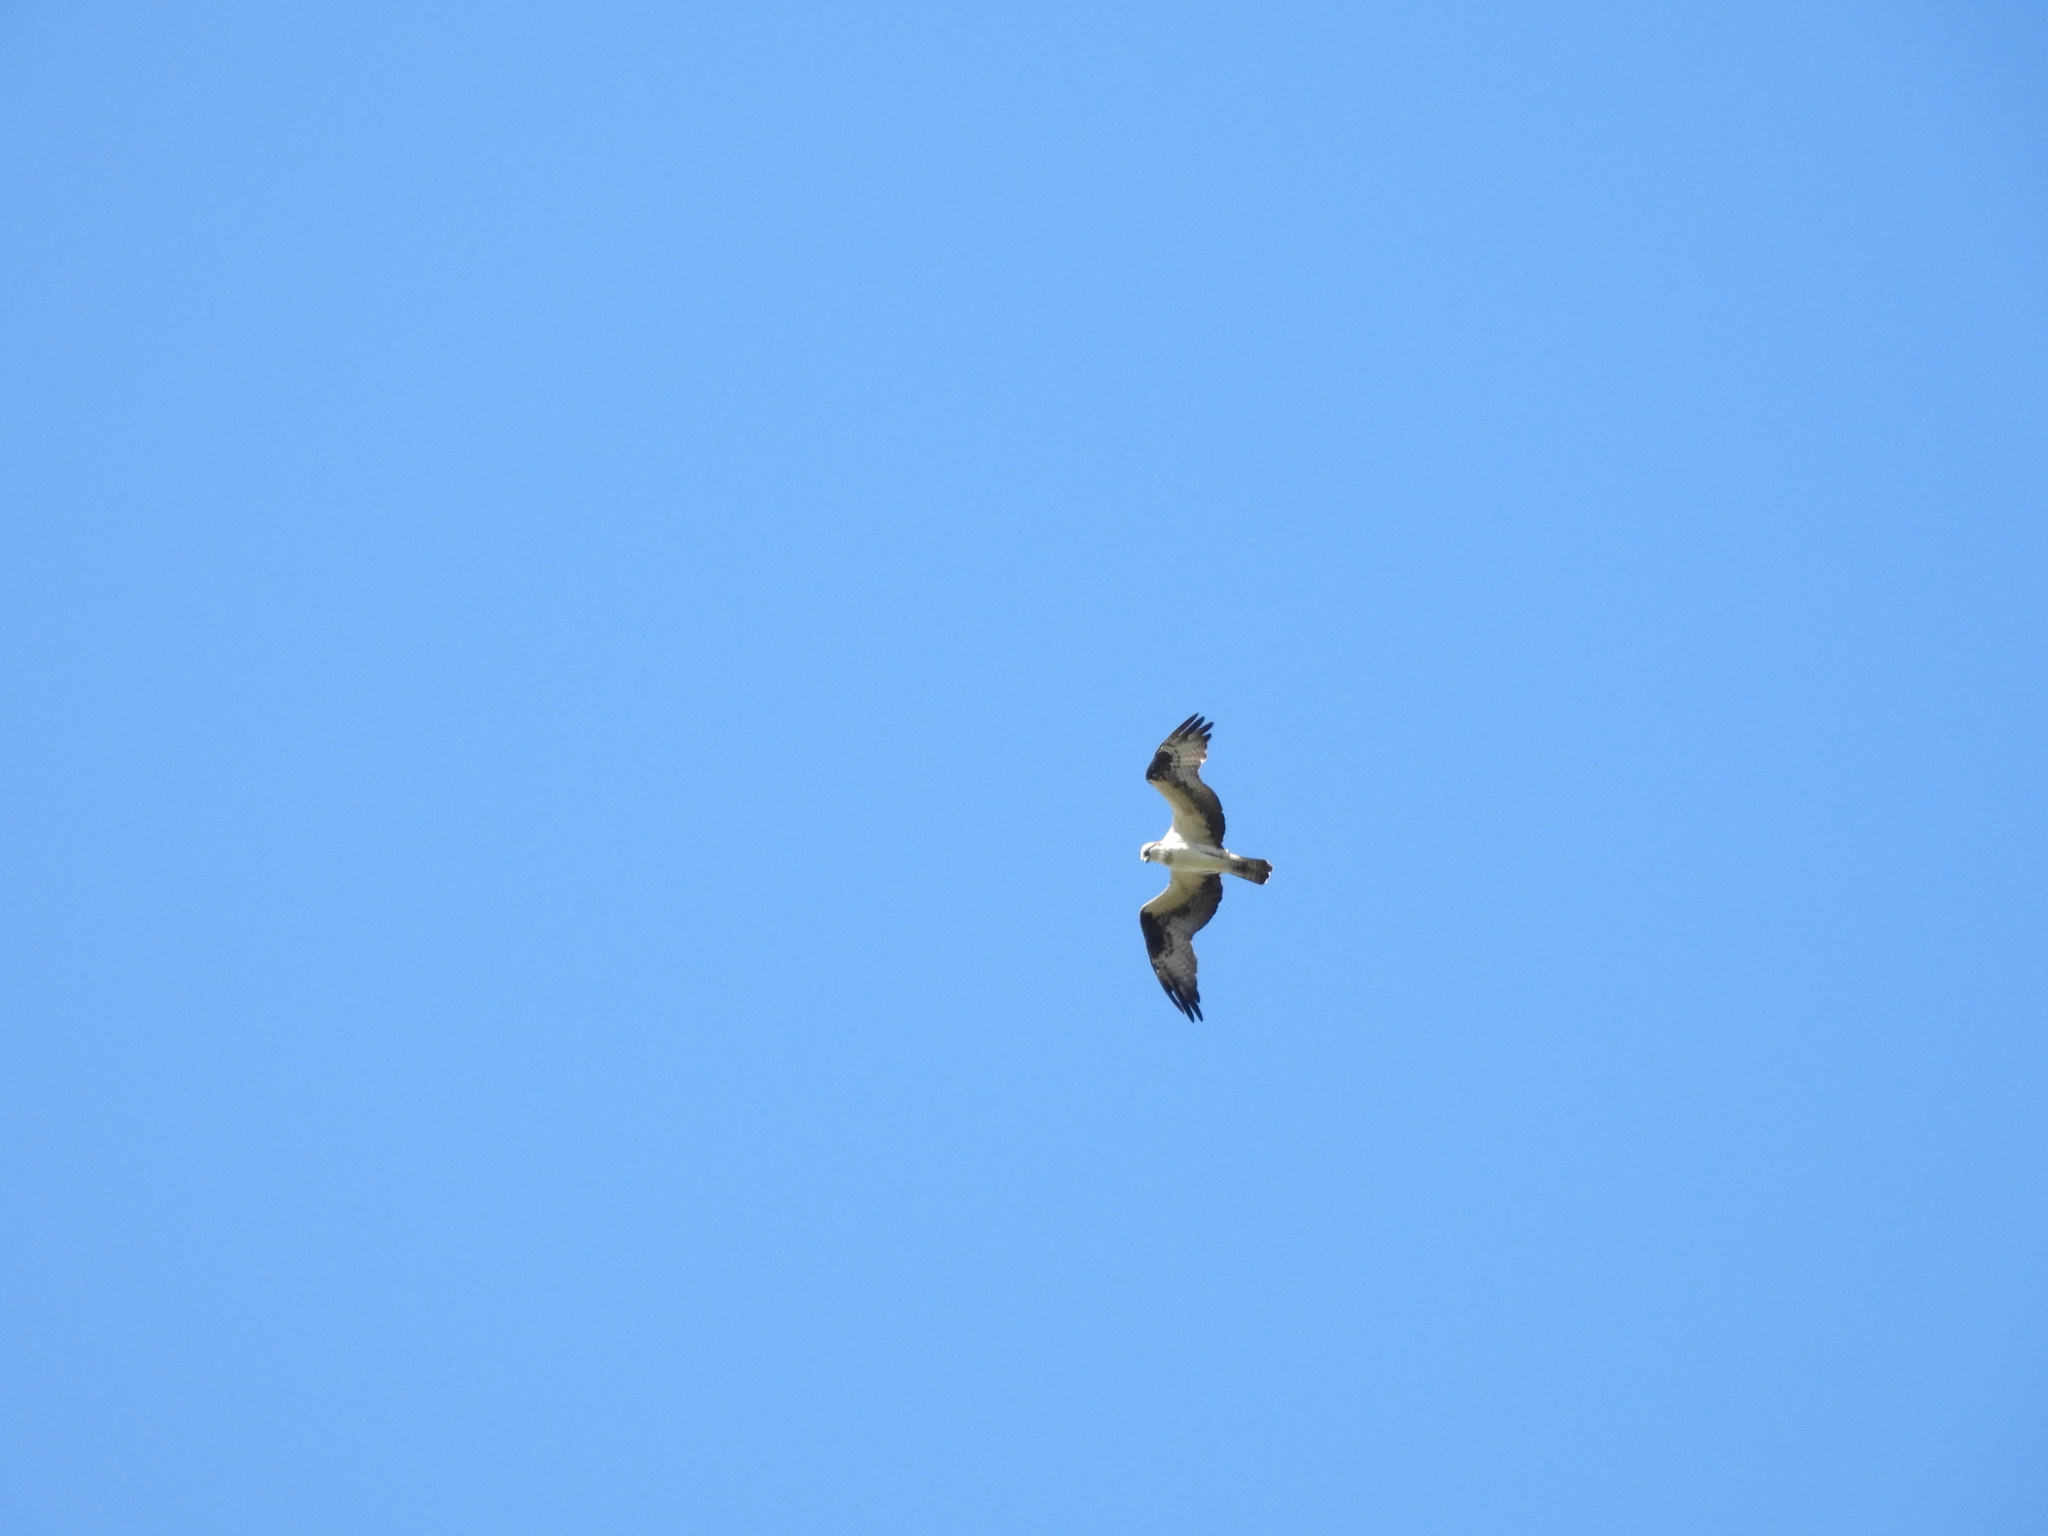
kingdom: Animalia
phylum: Chordata
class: Aves
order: Accipitriformes
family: Pandionidae
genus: Pandion
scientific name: Pandion haliaetus
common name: Osprey
